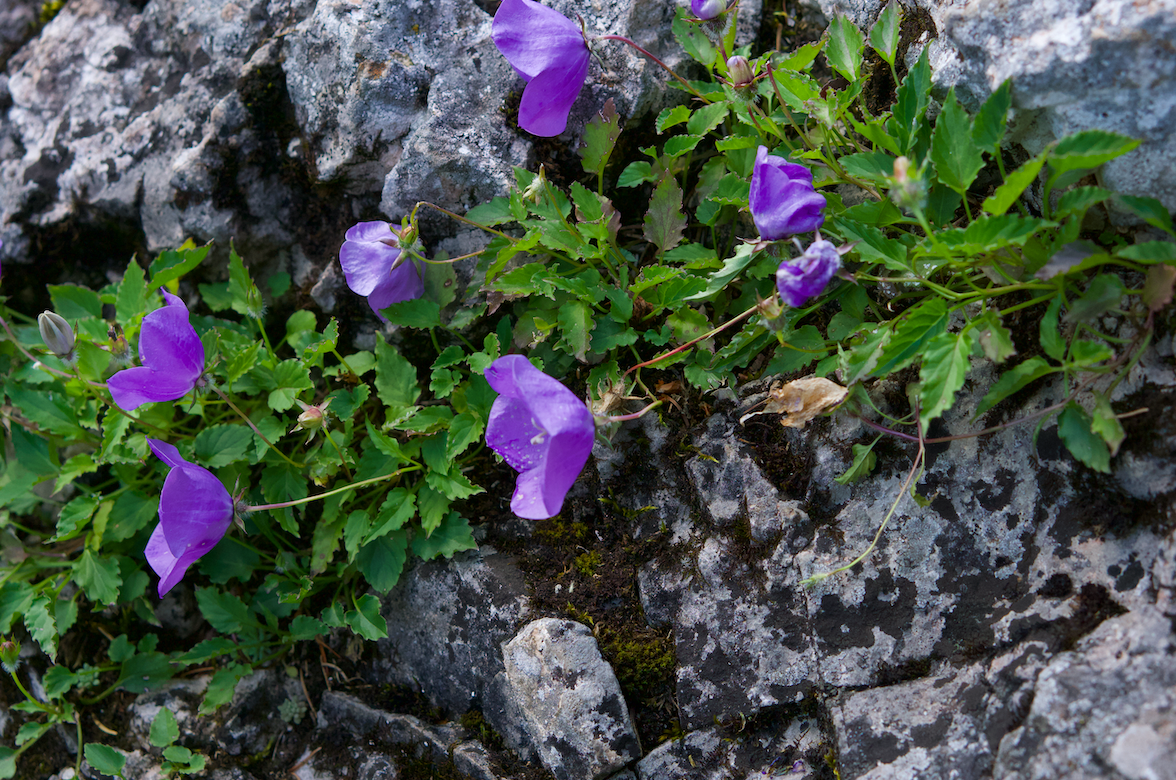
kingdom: Plantae
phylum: Tracheophyta
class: Magnoliopsida
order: Asterales
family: Campanulaceae
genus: Campanula
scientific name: Campanula carpatica
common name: Tussock bellflower
